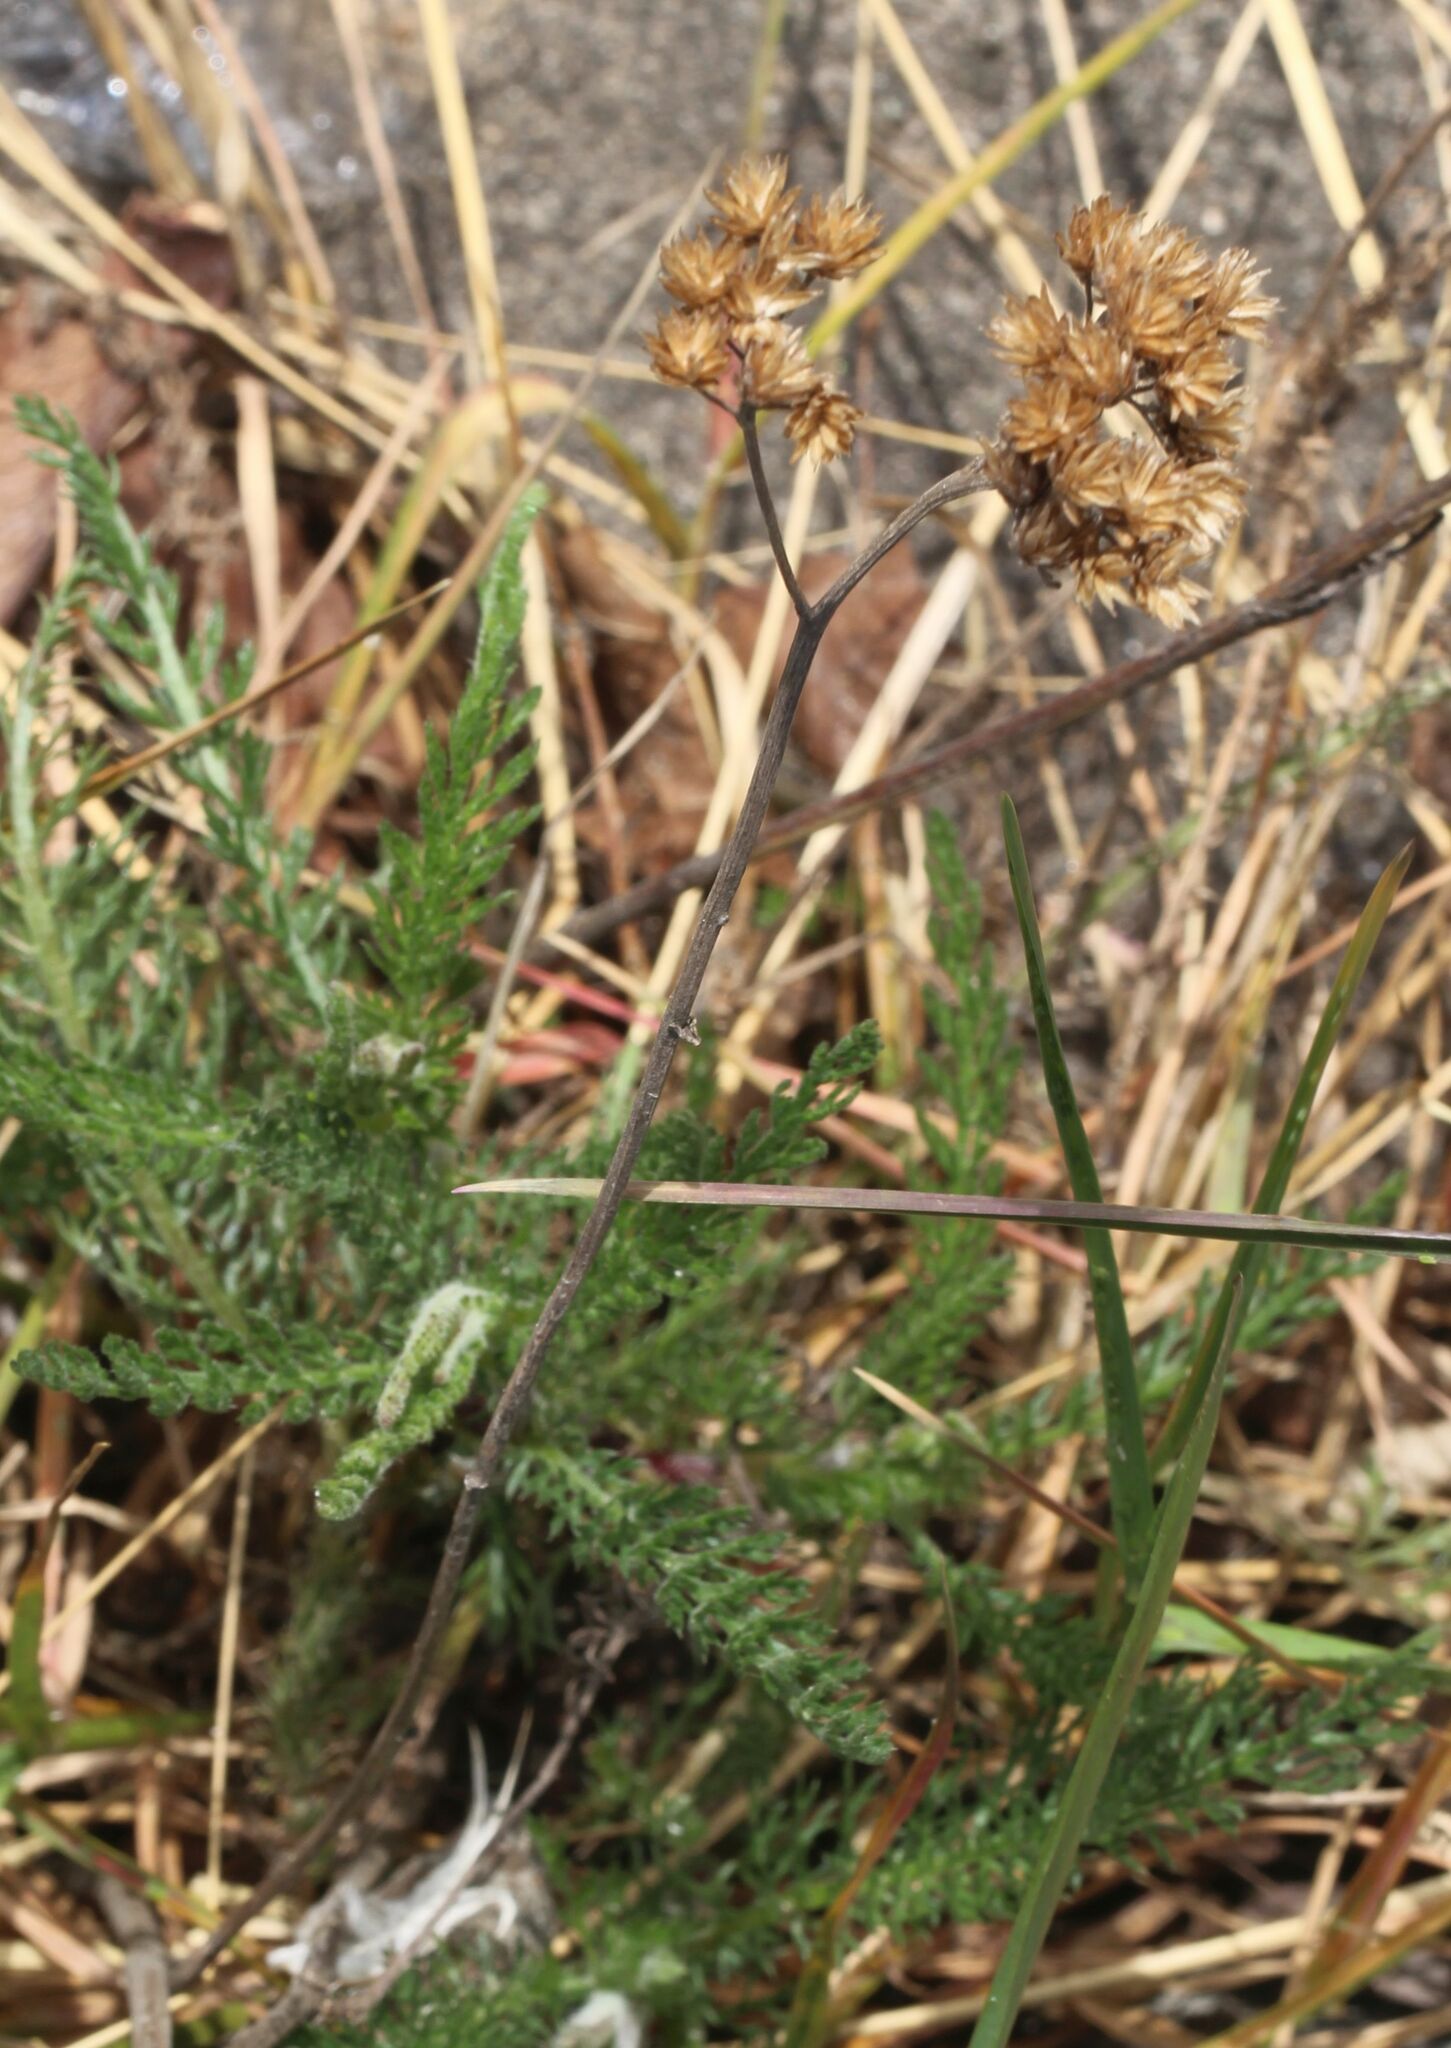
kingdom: Plantae
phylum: Tracheophyta
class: Magnoliopsida
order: Asterales
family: Asteraceae
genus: Achillea
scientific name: Achillea millefolium
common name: Yarrow
